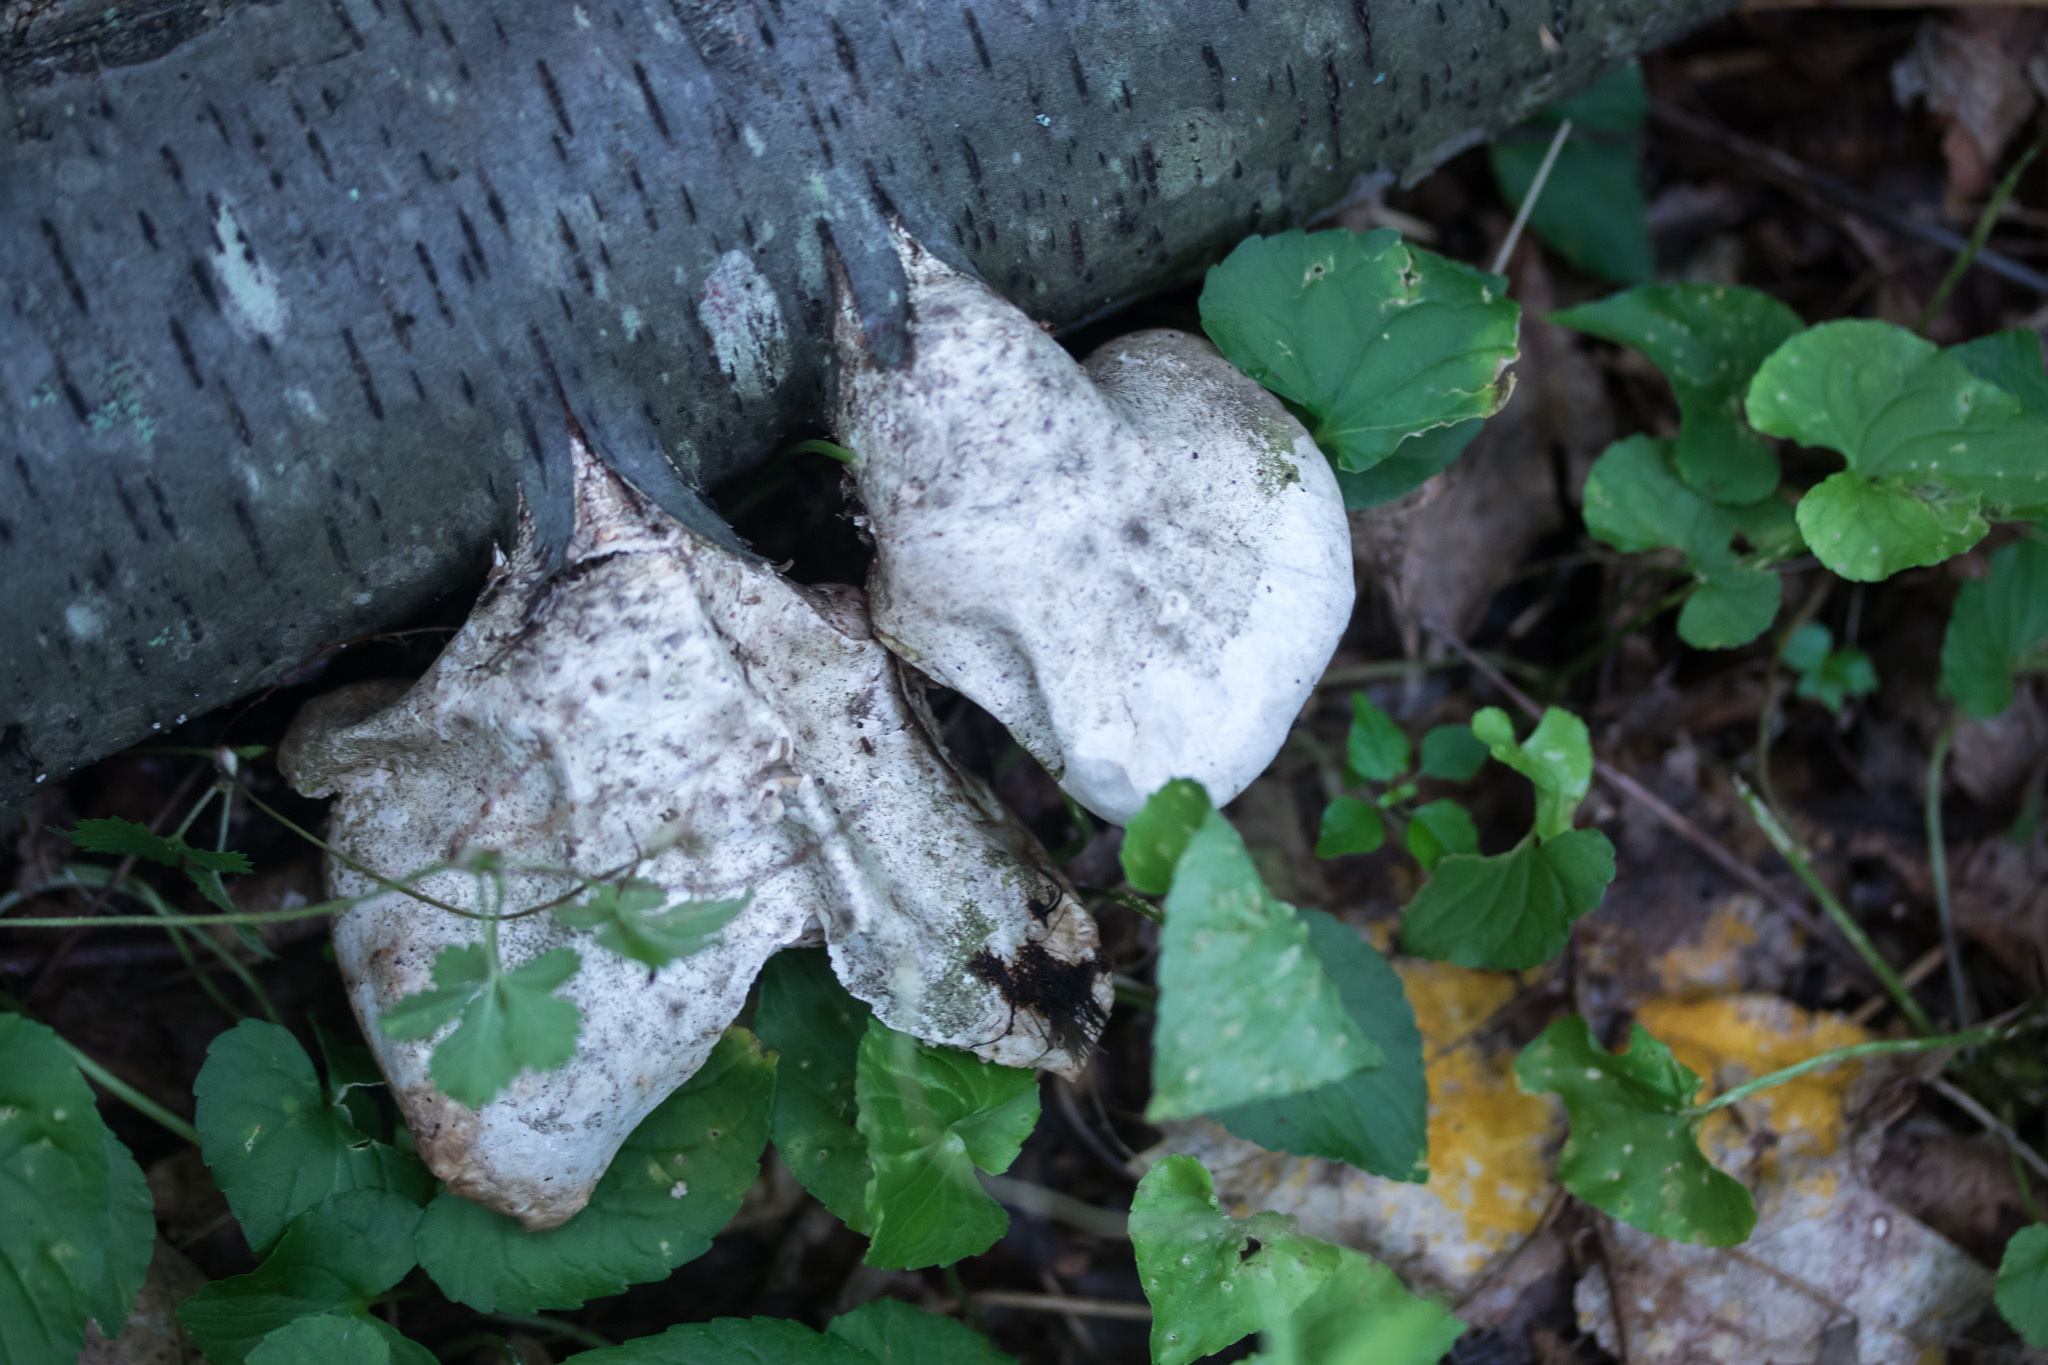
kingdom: Fungi
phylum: Basidiomycota
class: Agaricomycetes
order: Polyporales
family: Fomitopsidaceae
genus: Fomitopsis
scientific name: Fomitopsis betulina
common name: Birch polypore
